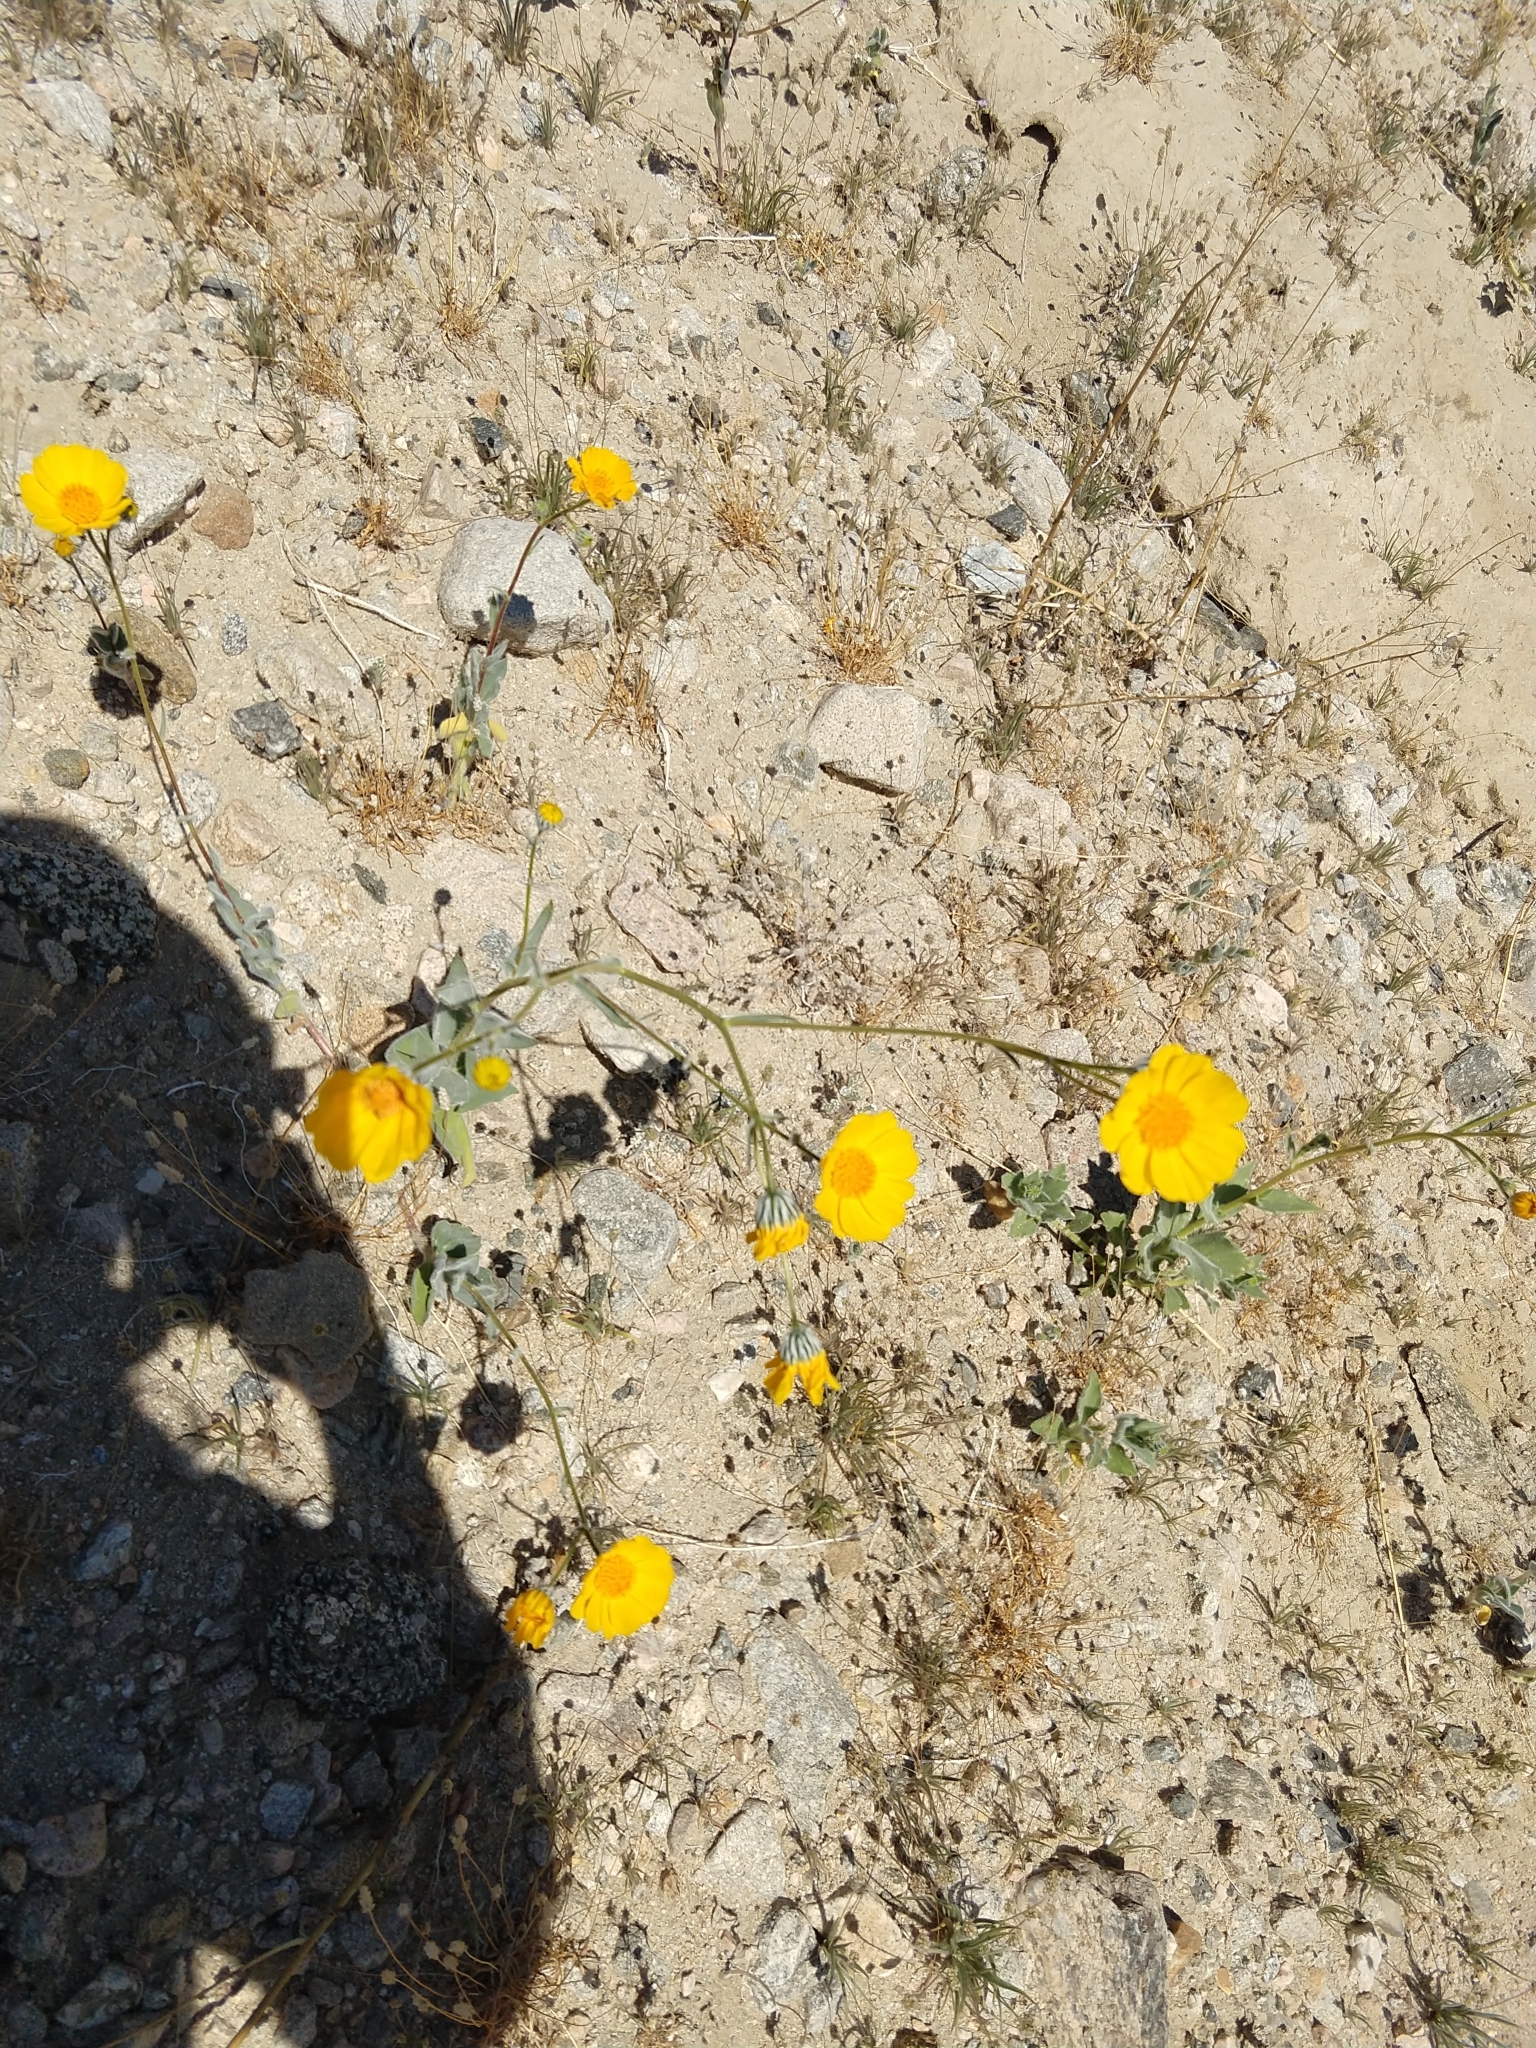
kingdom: Plantae
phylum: Tracheophyta
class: Magnoliopsida
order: Asterales
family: Asteraceae
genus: Geraea
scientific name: Geraea canescens
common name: Desert-gold
